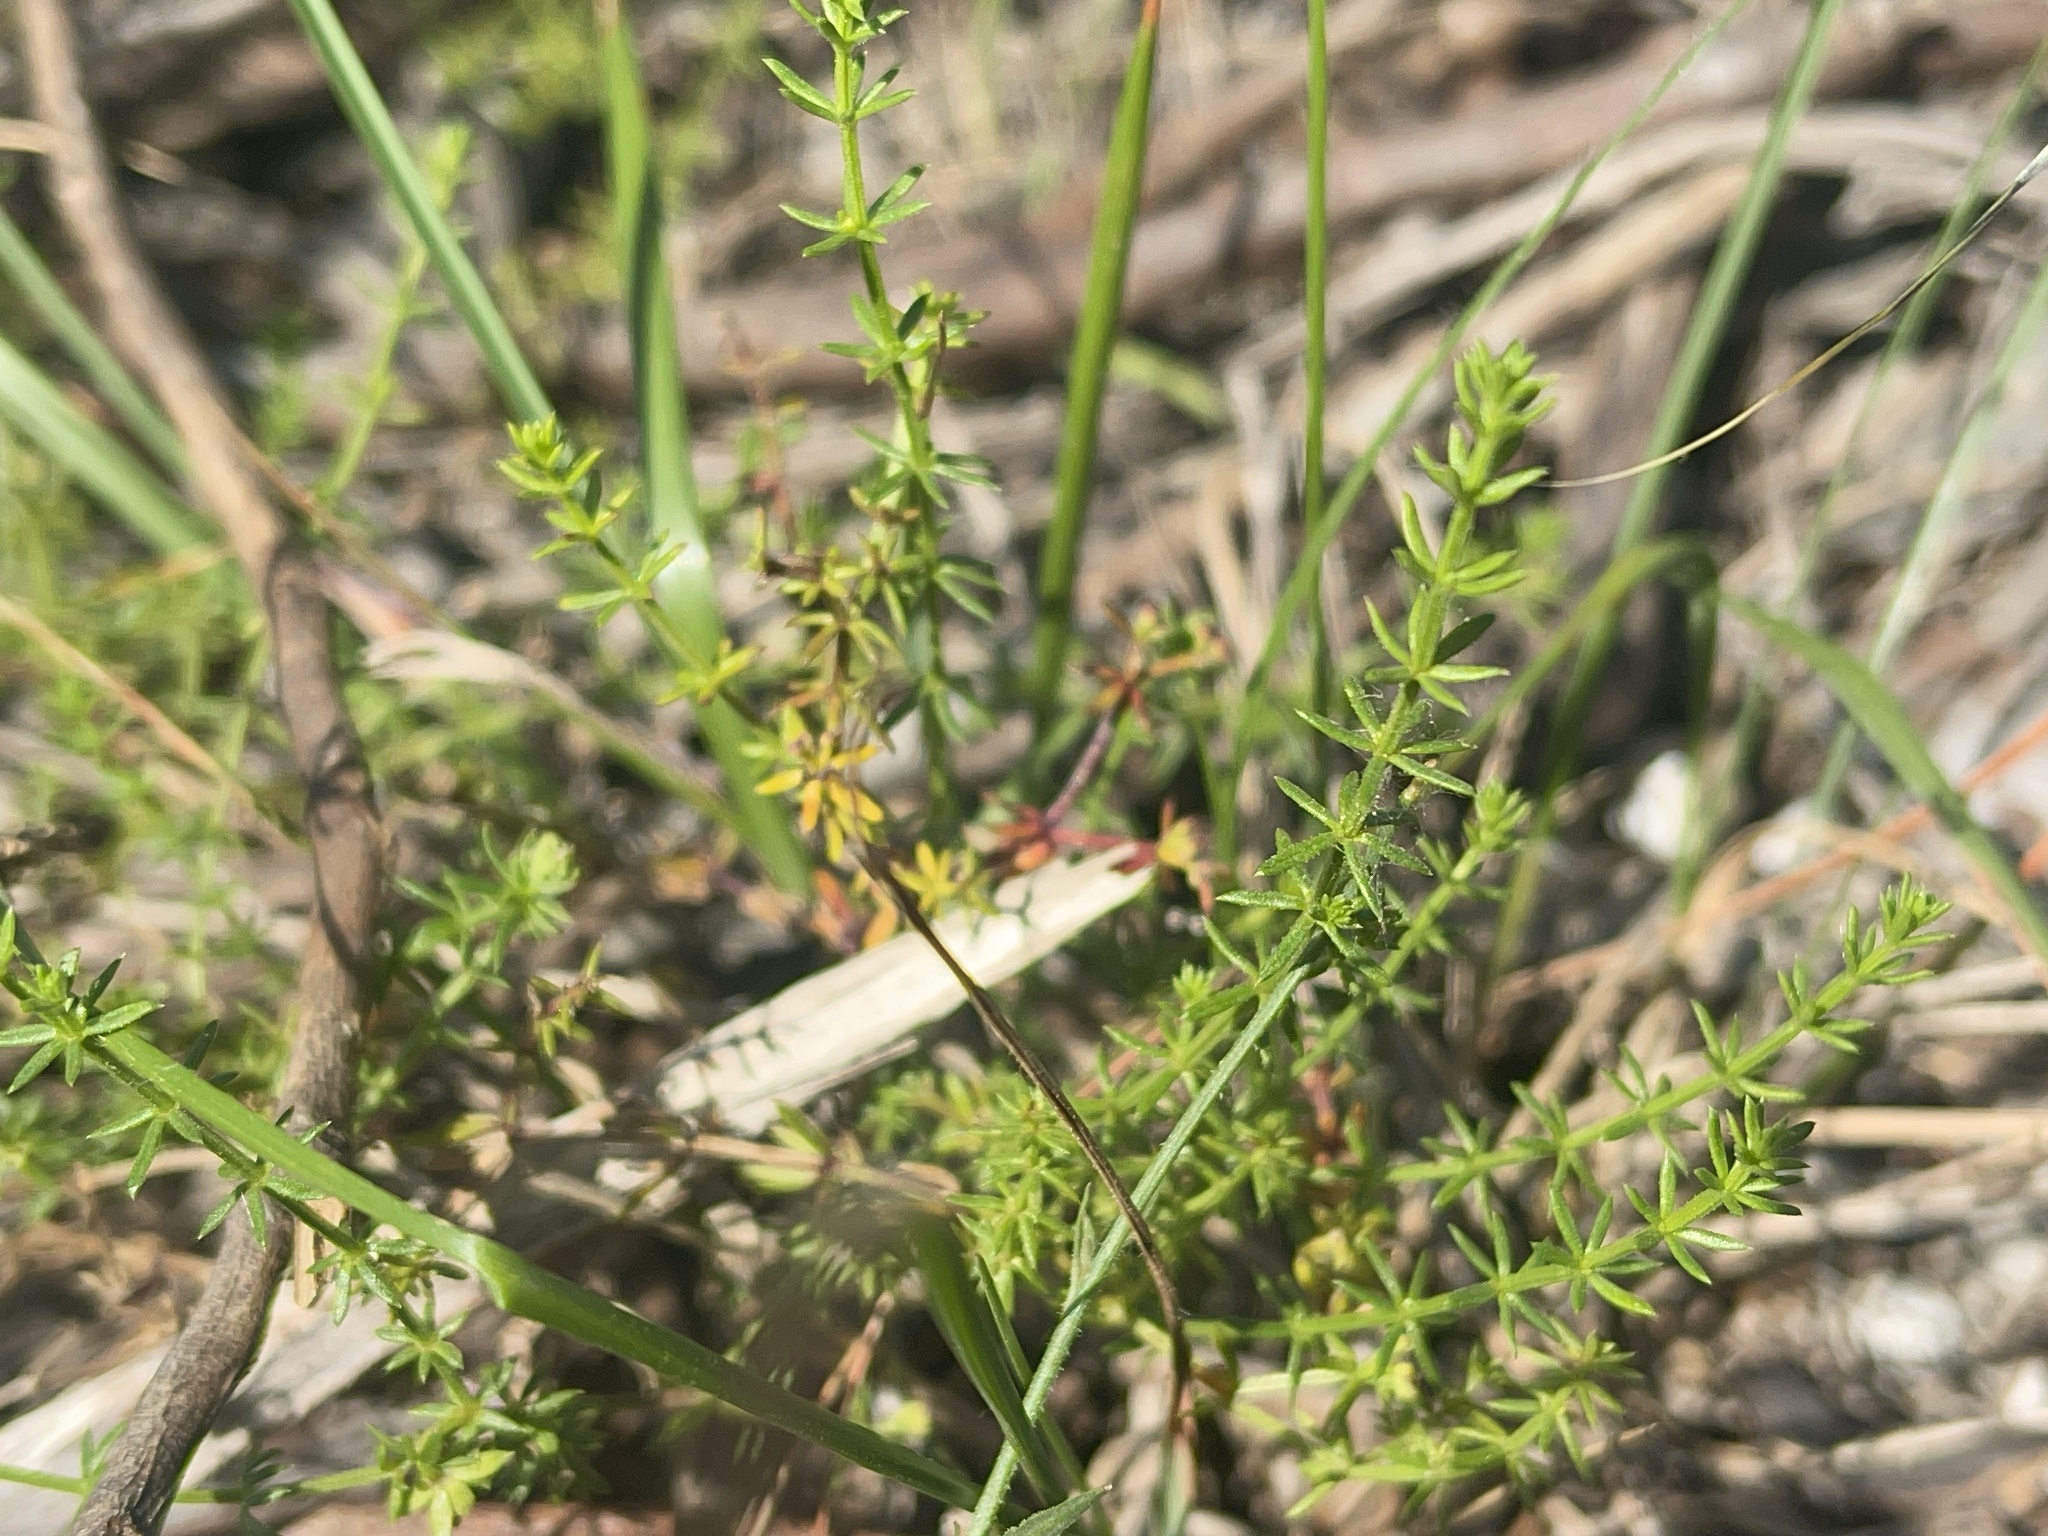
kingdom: Plantae
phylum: Tracheophyta
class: Magnoliopsida
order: Gentianales
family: Rubiaceae
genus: Asperula
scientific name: Asperula conferta
